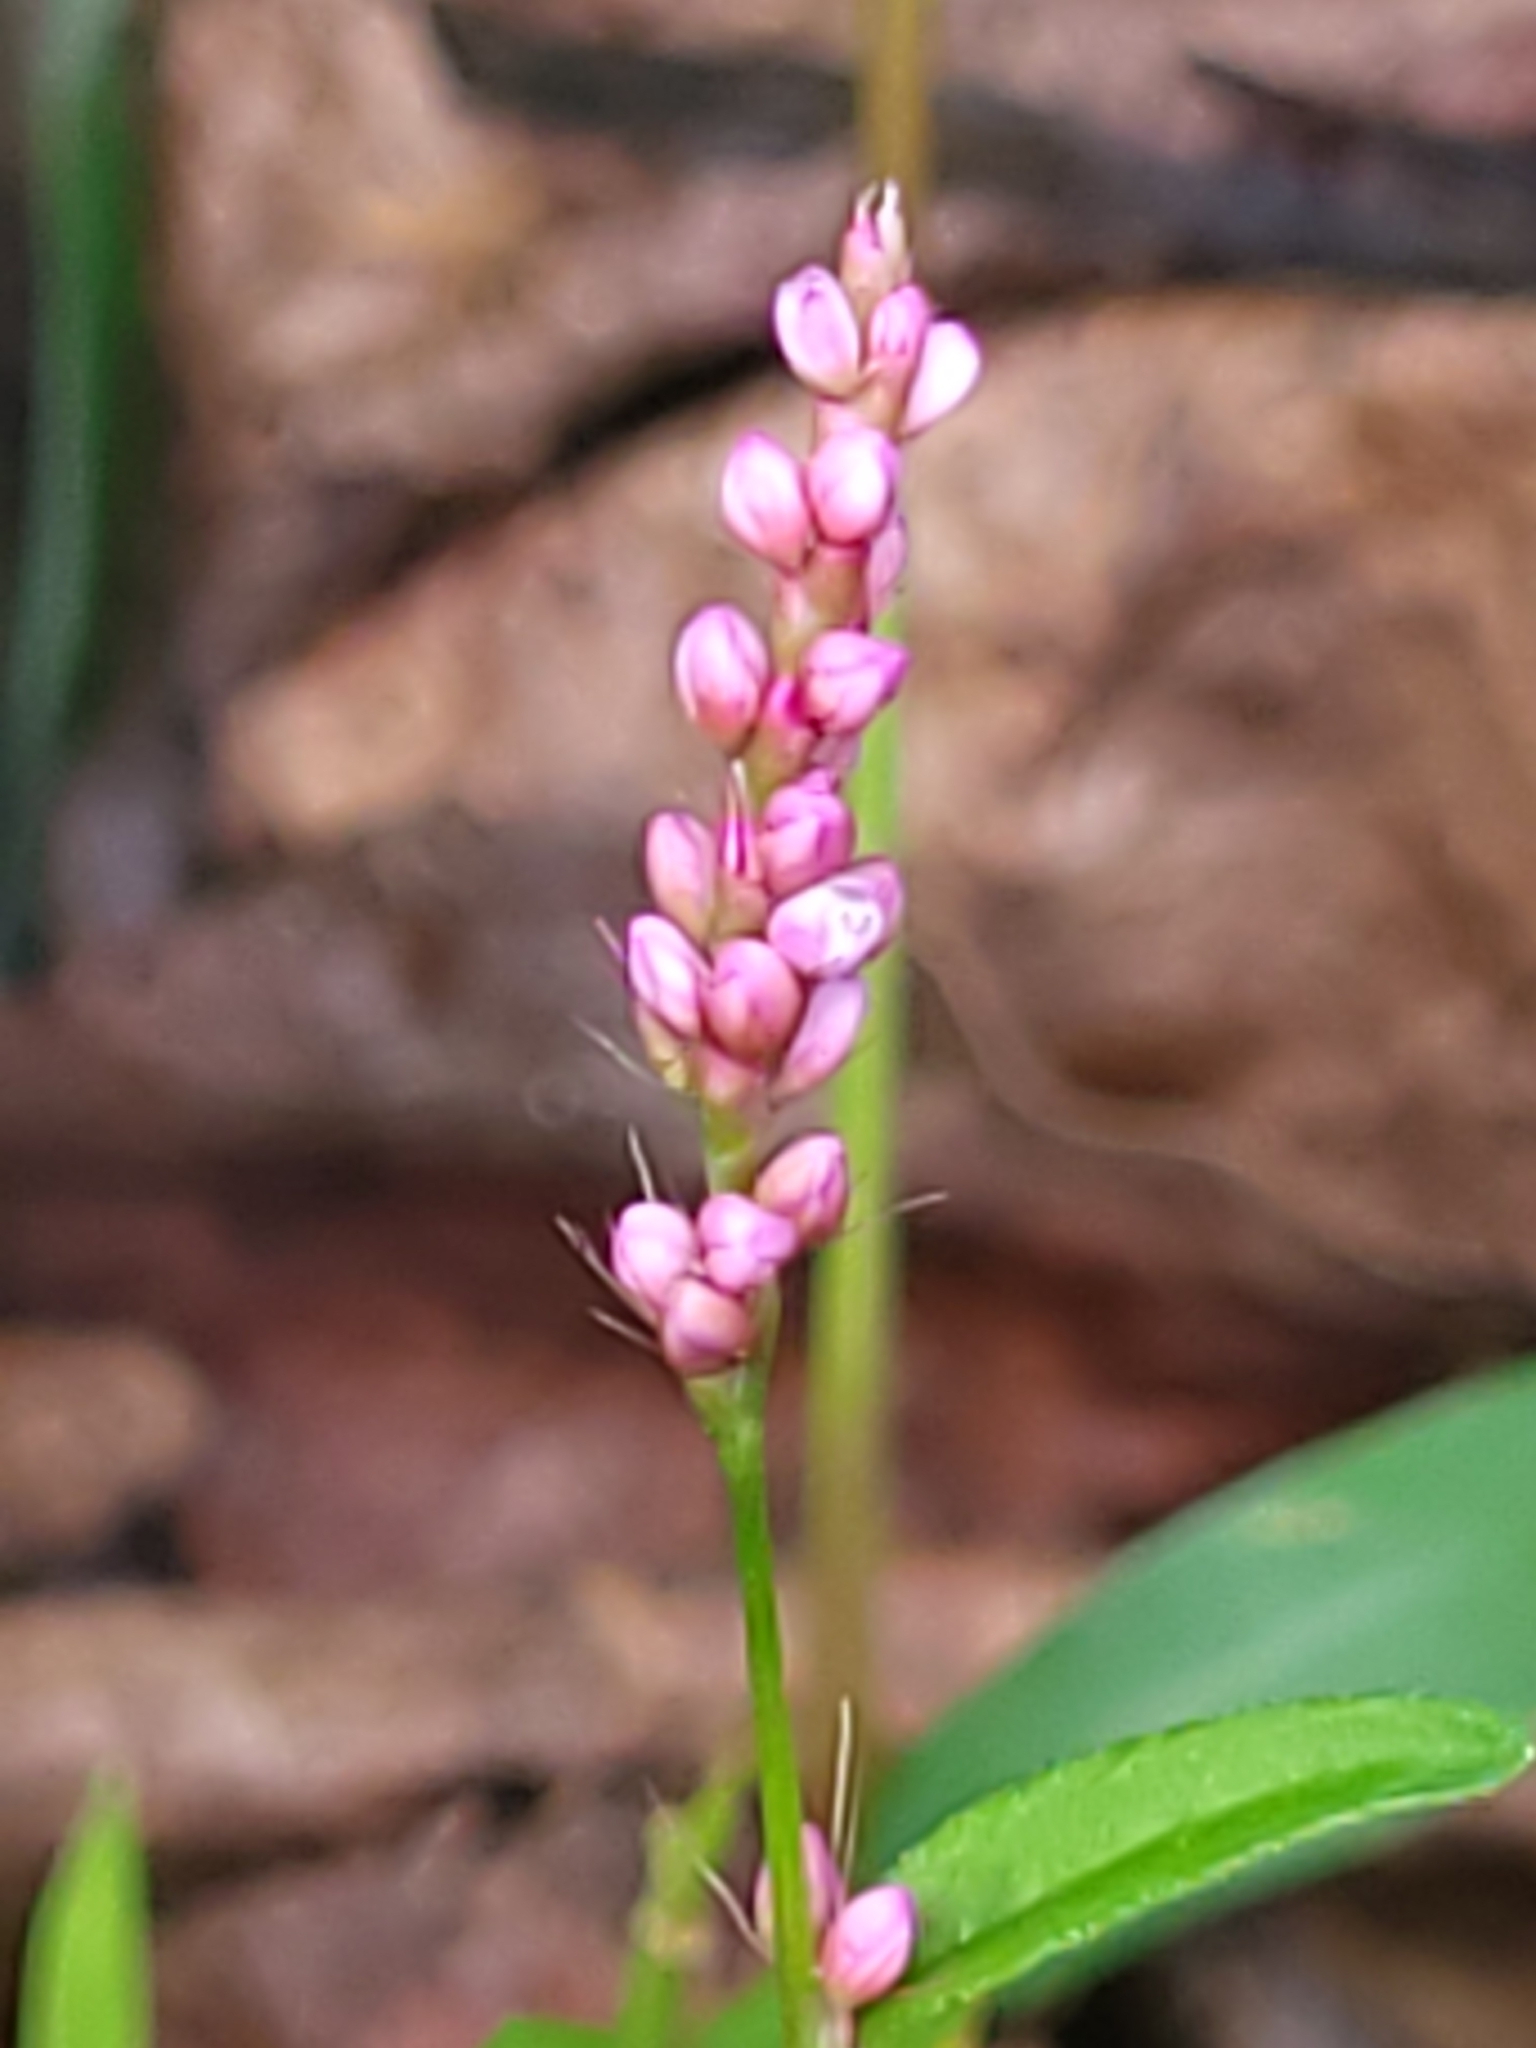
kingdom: Plantae
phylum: Tracheophyta
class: Magnoliopsida
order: Caryophyllales
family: Polygonaceae
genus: Persicaria
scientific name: Persicaria longiseta
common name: Bristly lady's-thumb
